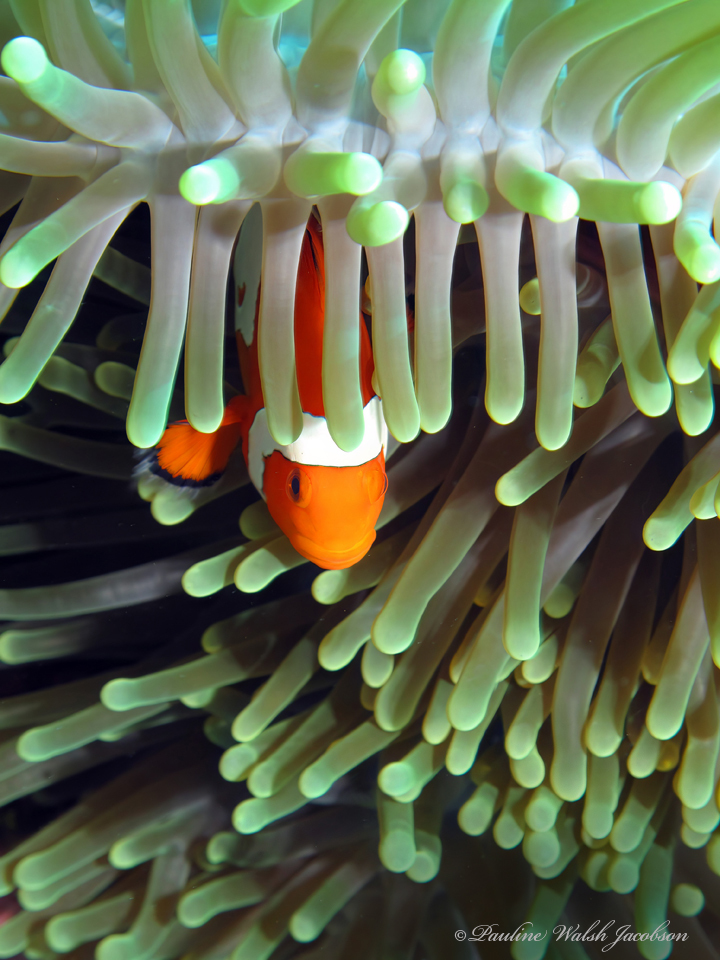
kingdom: Animalia
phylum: Chordata
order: Perciformes
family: Pomacentridae
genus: Amphiprion
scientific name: Amphiprion ocellaris
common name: Clown anemonefish
